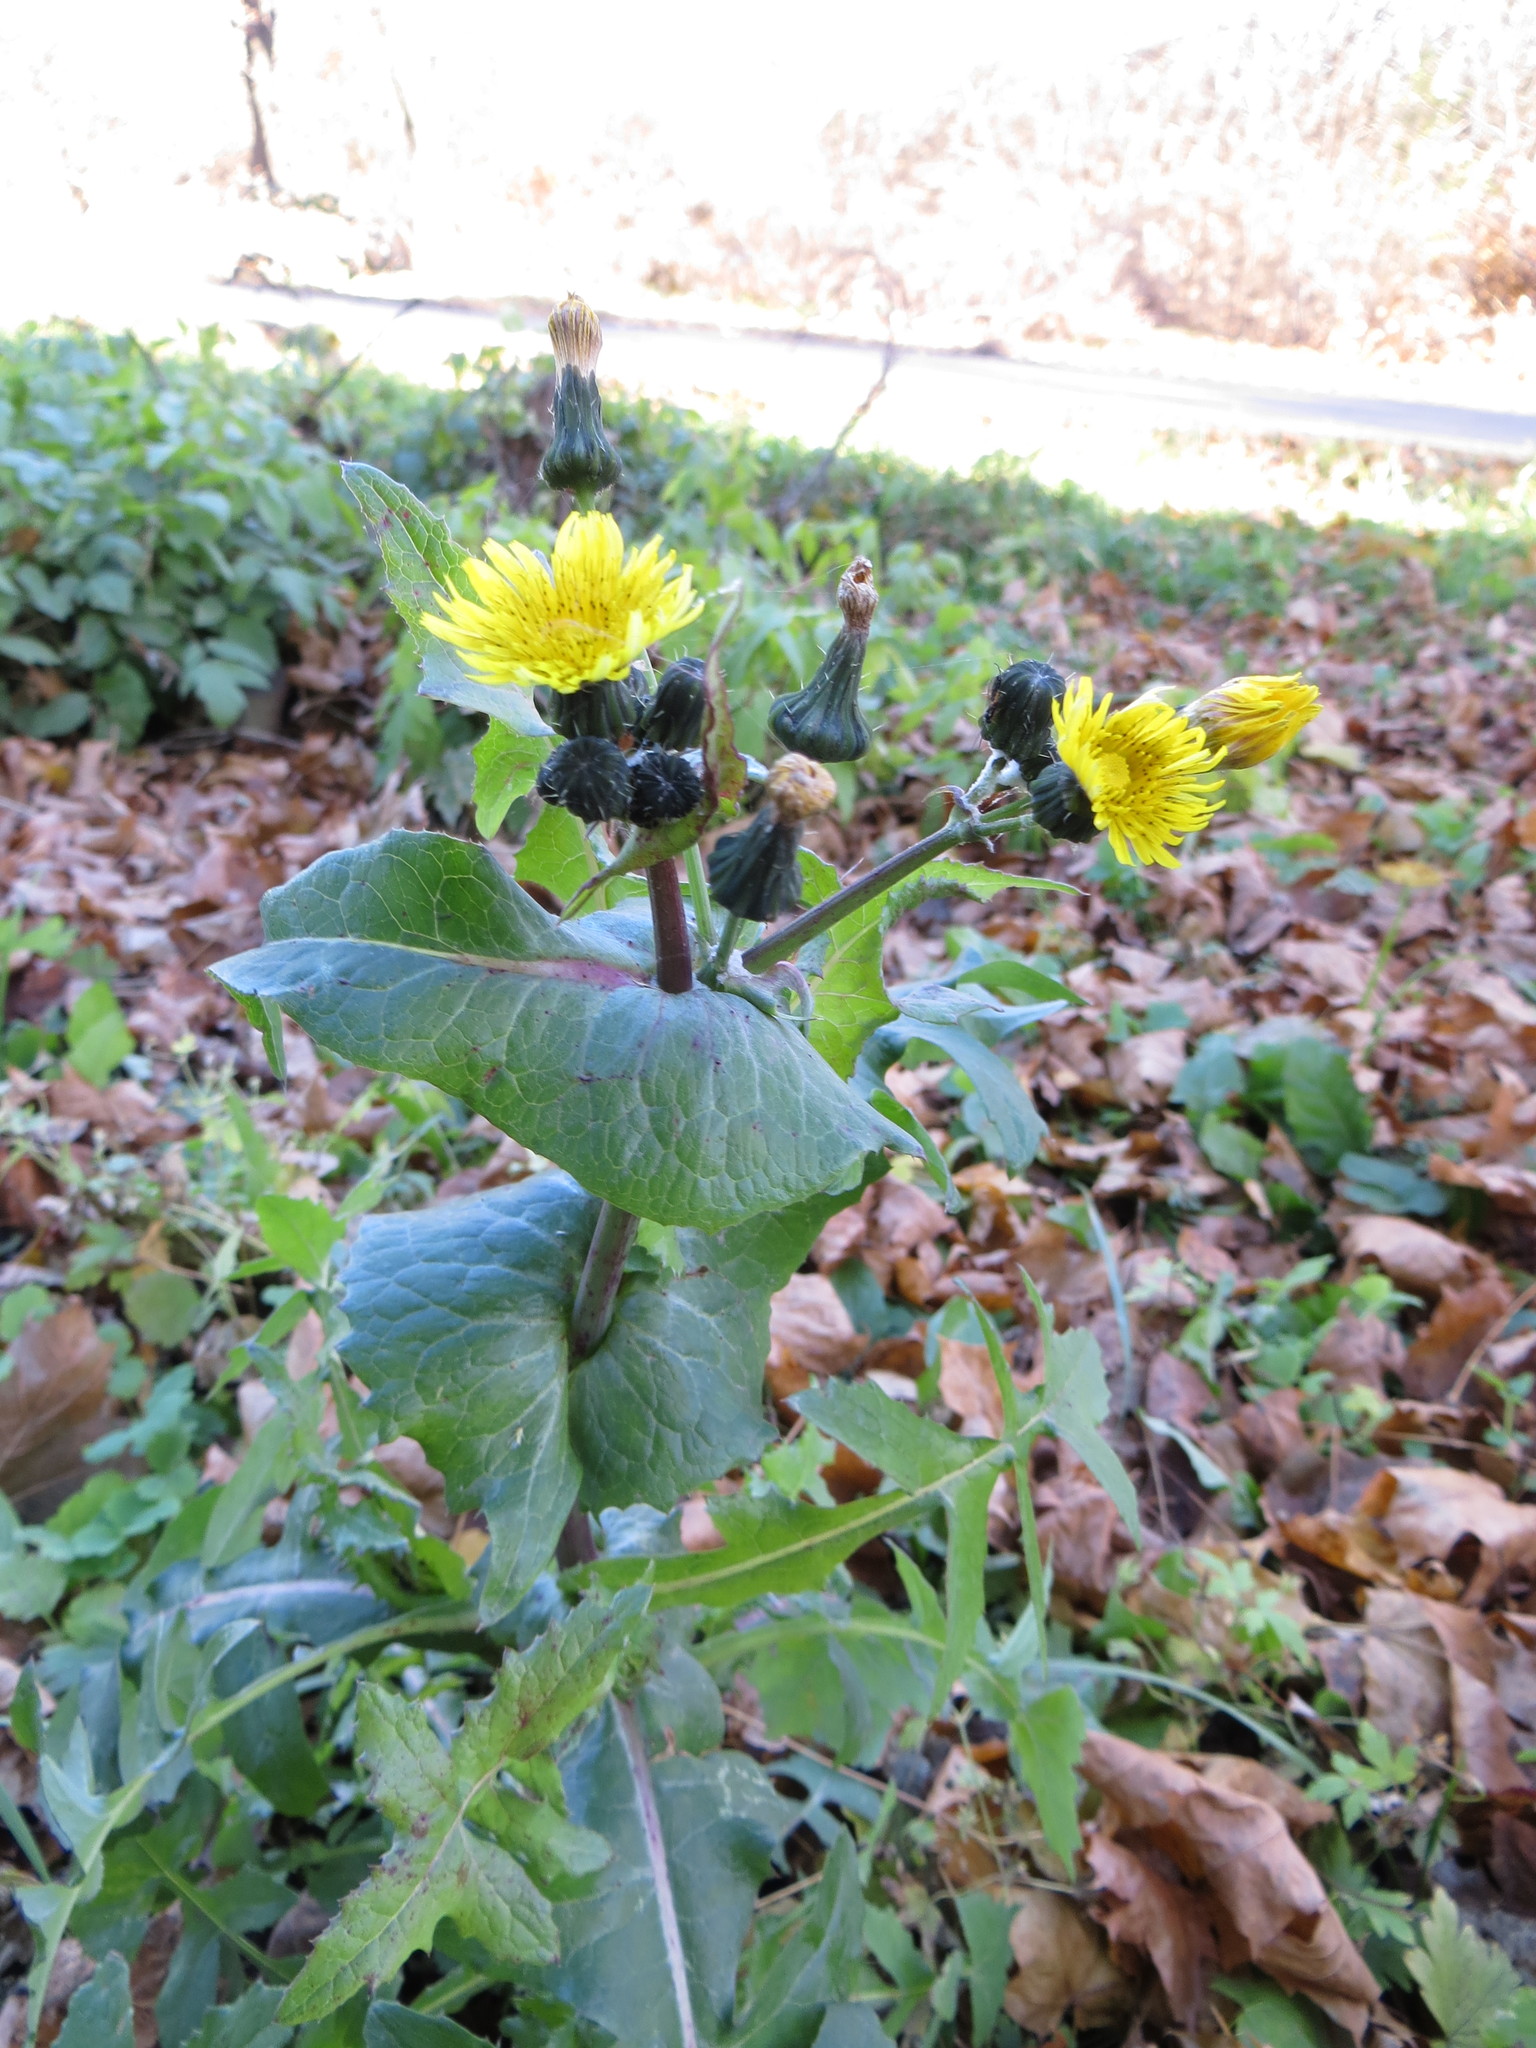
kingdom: Plantae
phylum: Tracheophyta
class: Magnoliopsida
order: Asterales
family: Asteraceae
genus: Sonchus
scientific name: Sonchus oleraceus
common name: Common sowthistle
